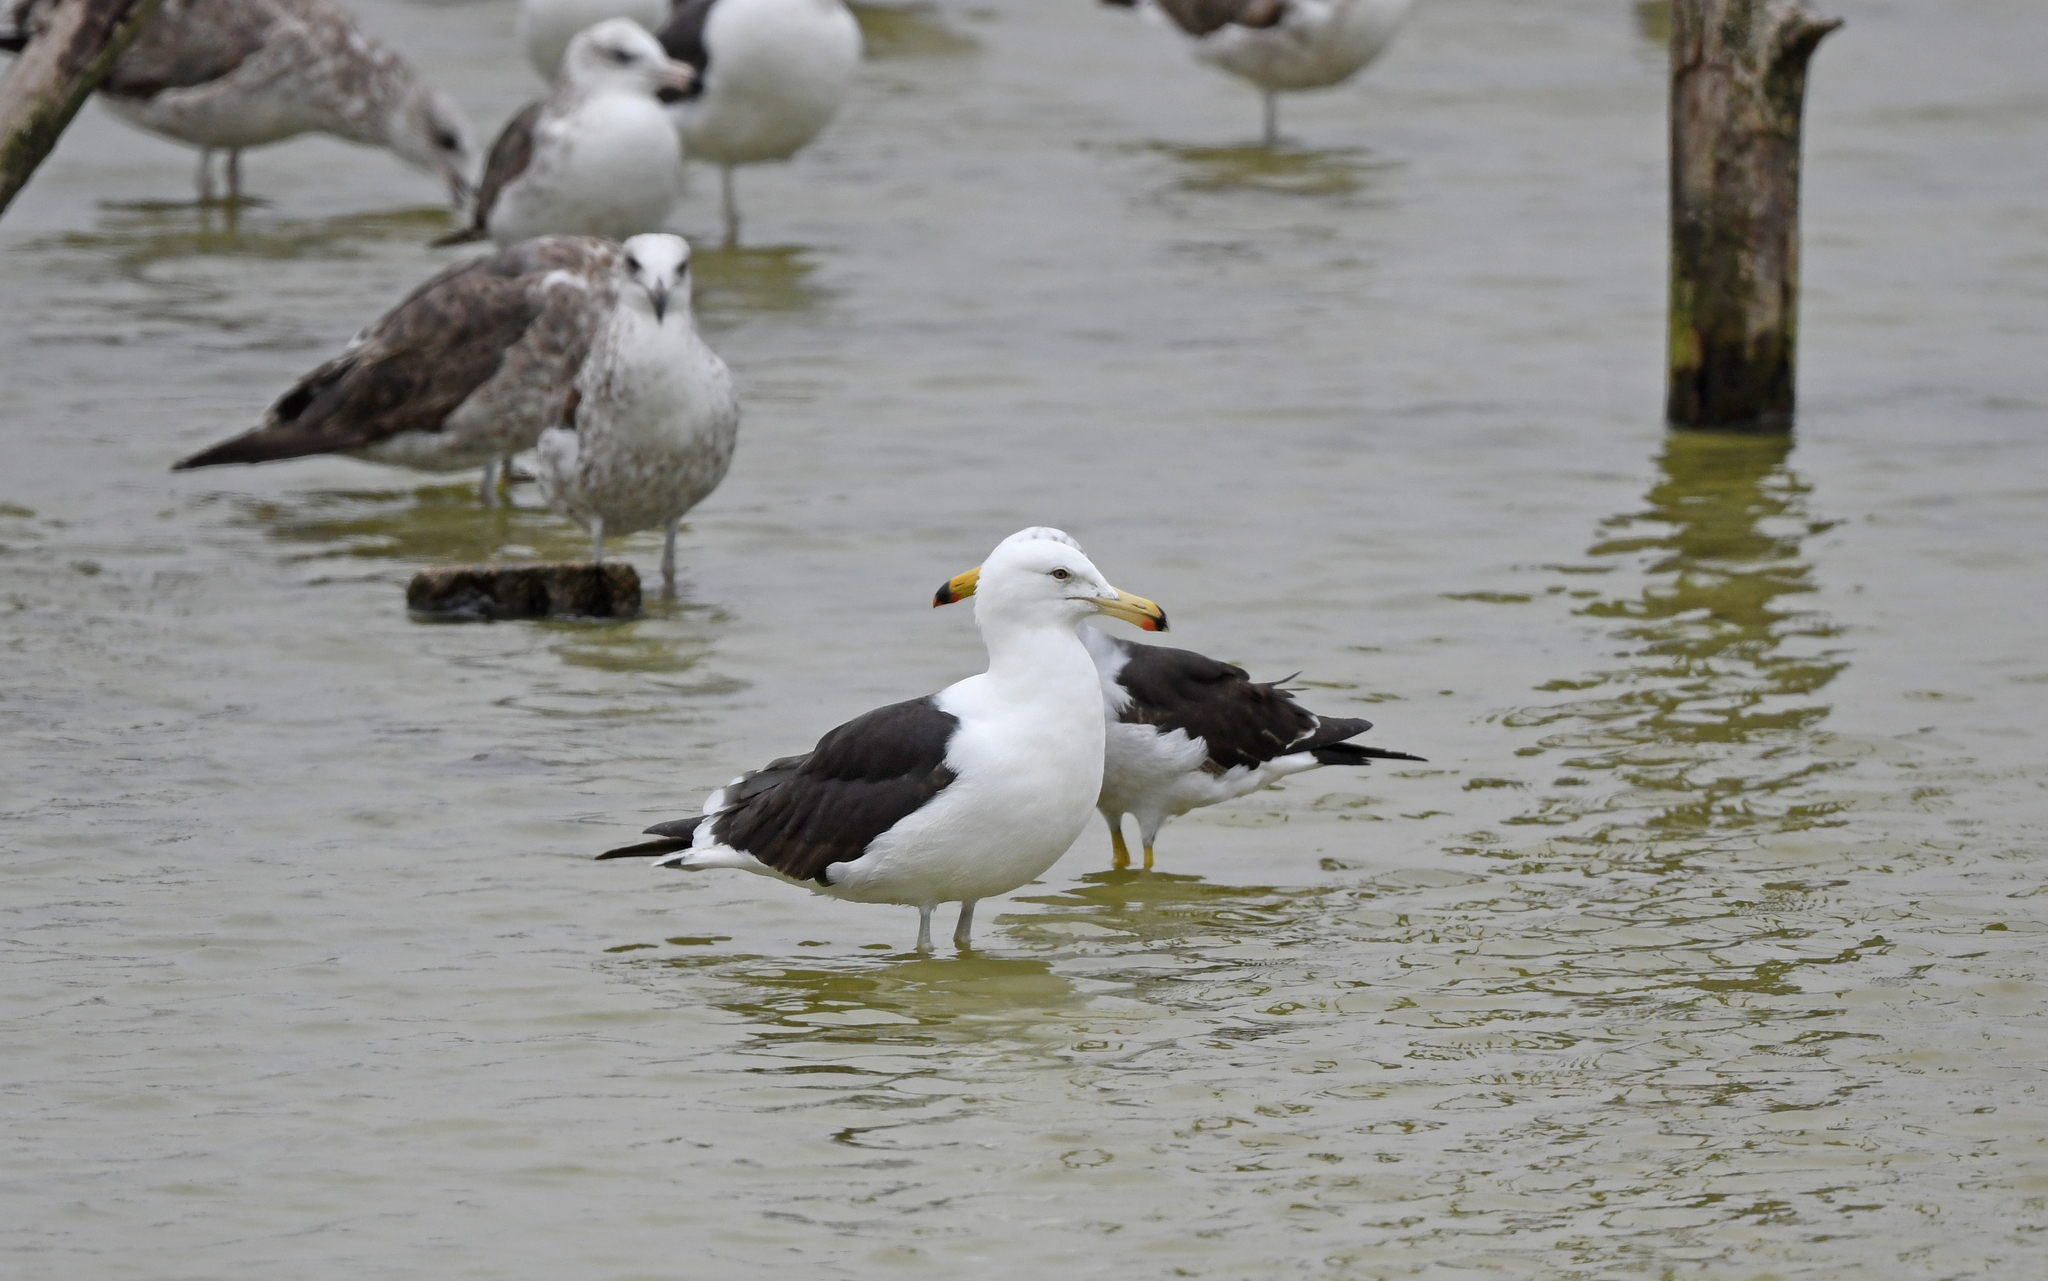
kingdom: Animalia
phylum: Chordata
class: Aves
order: Charadriiformes
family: Laridae
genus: Larus
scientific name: Larus belcheri
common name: Belcher's gull
